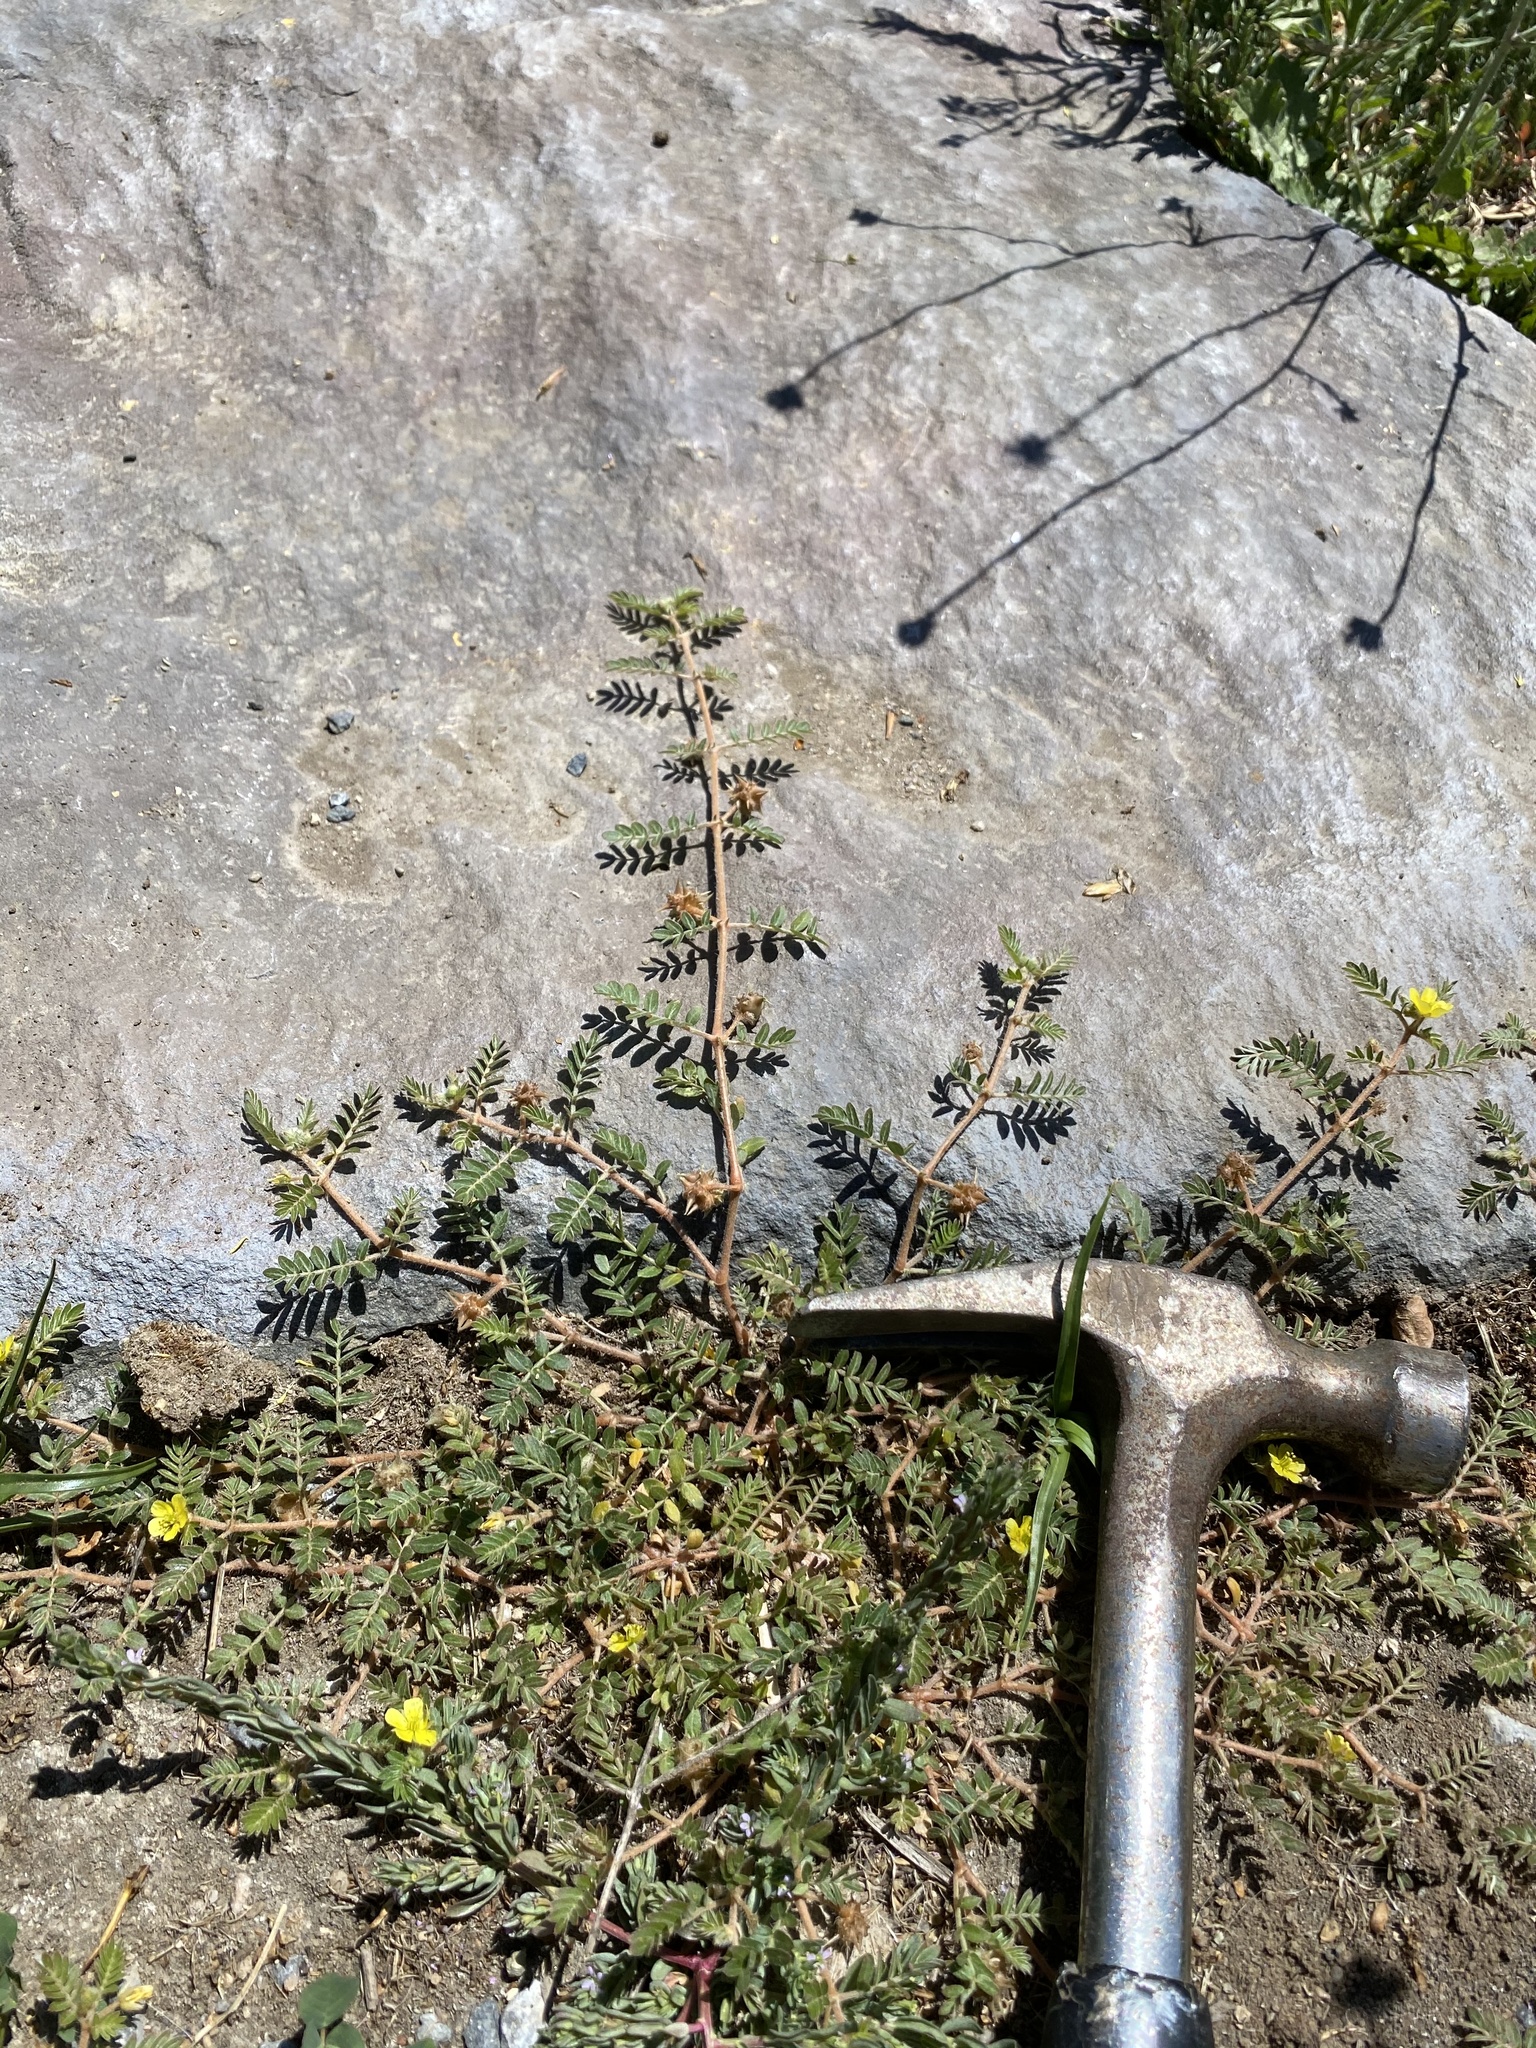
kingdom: Plantae
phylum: Tracheophyta
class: Magnoliopsida
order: Zygophyllales
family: Zygophyllaceae
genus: Tribulus
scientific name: Tribulus terrestris
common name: Puncturevine
